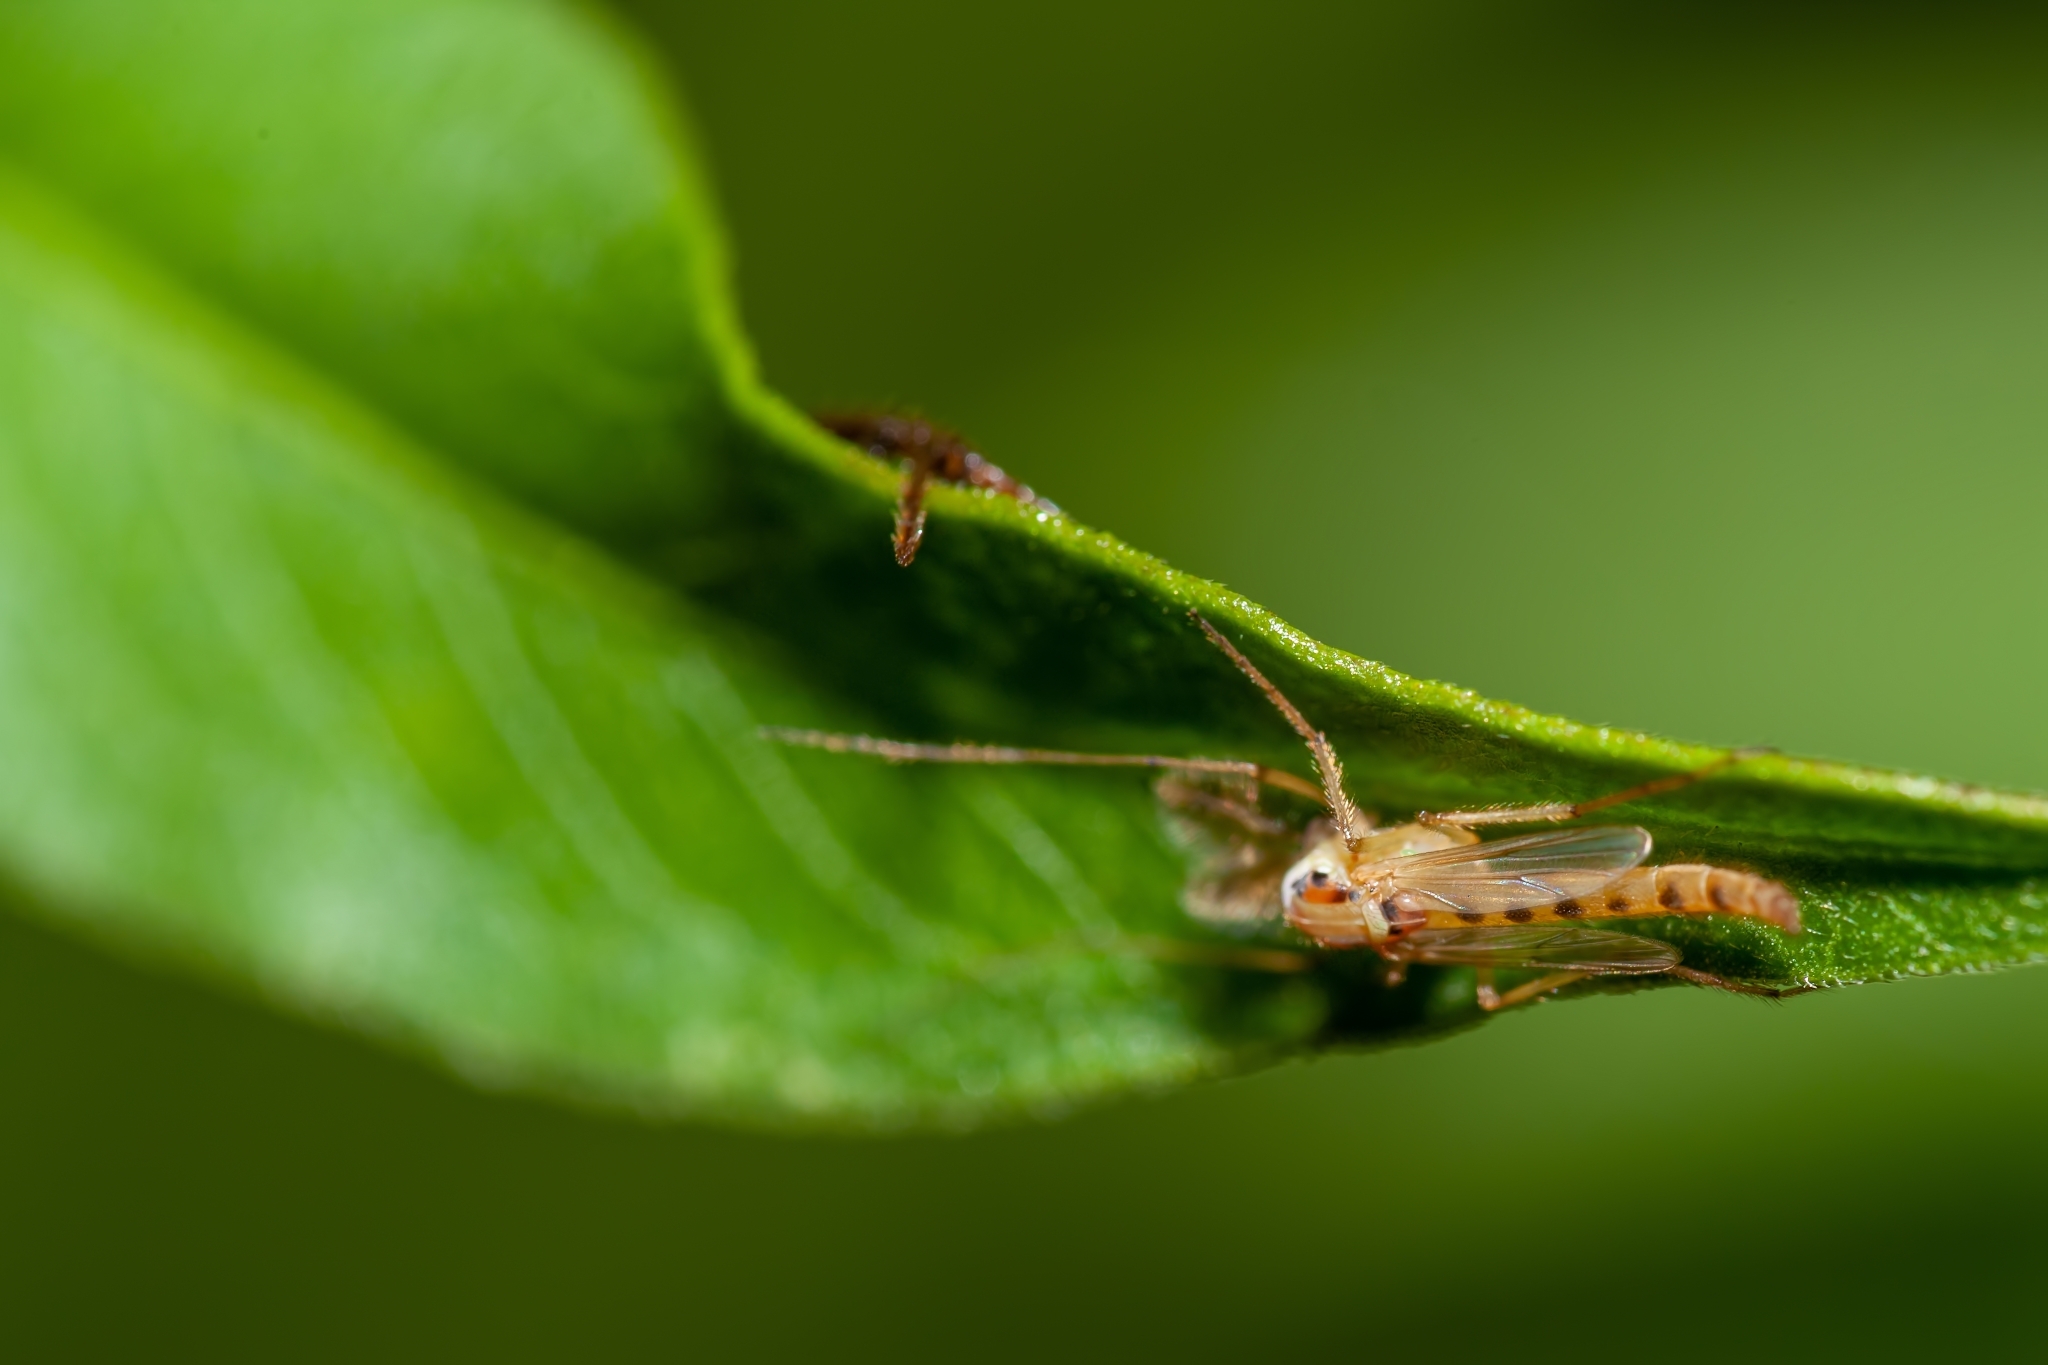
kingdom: Animalia
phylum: Arthropoda
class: Insecta
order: Diptera
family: Chironomidae
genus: Goeldichironomus
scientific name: Goeldichironomus carus
